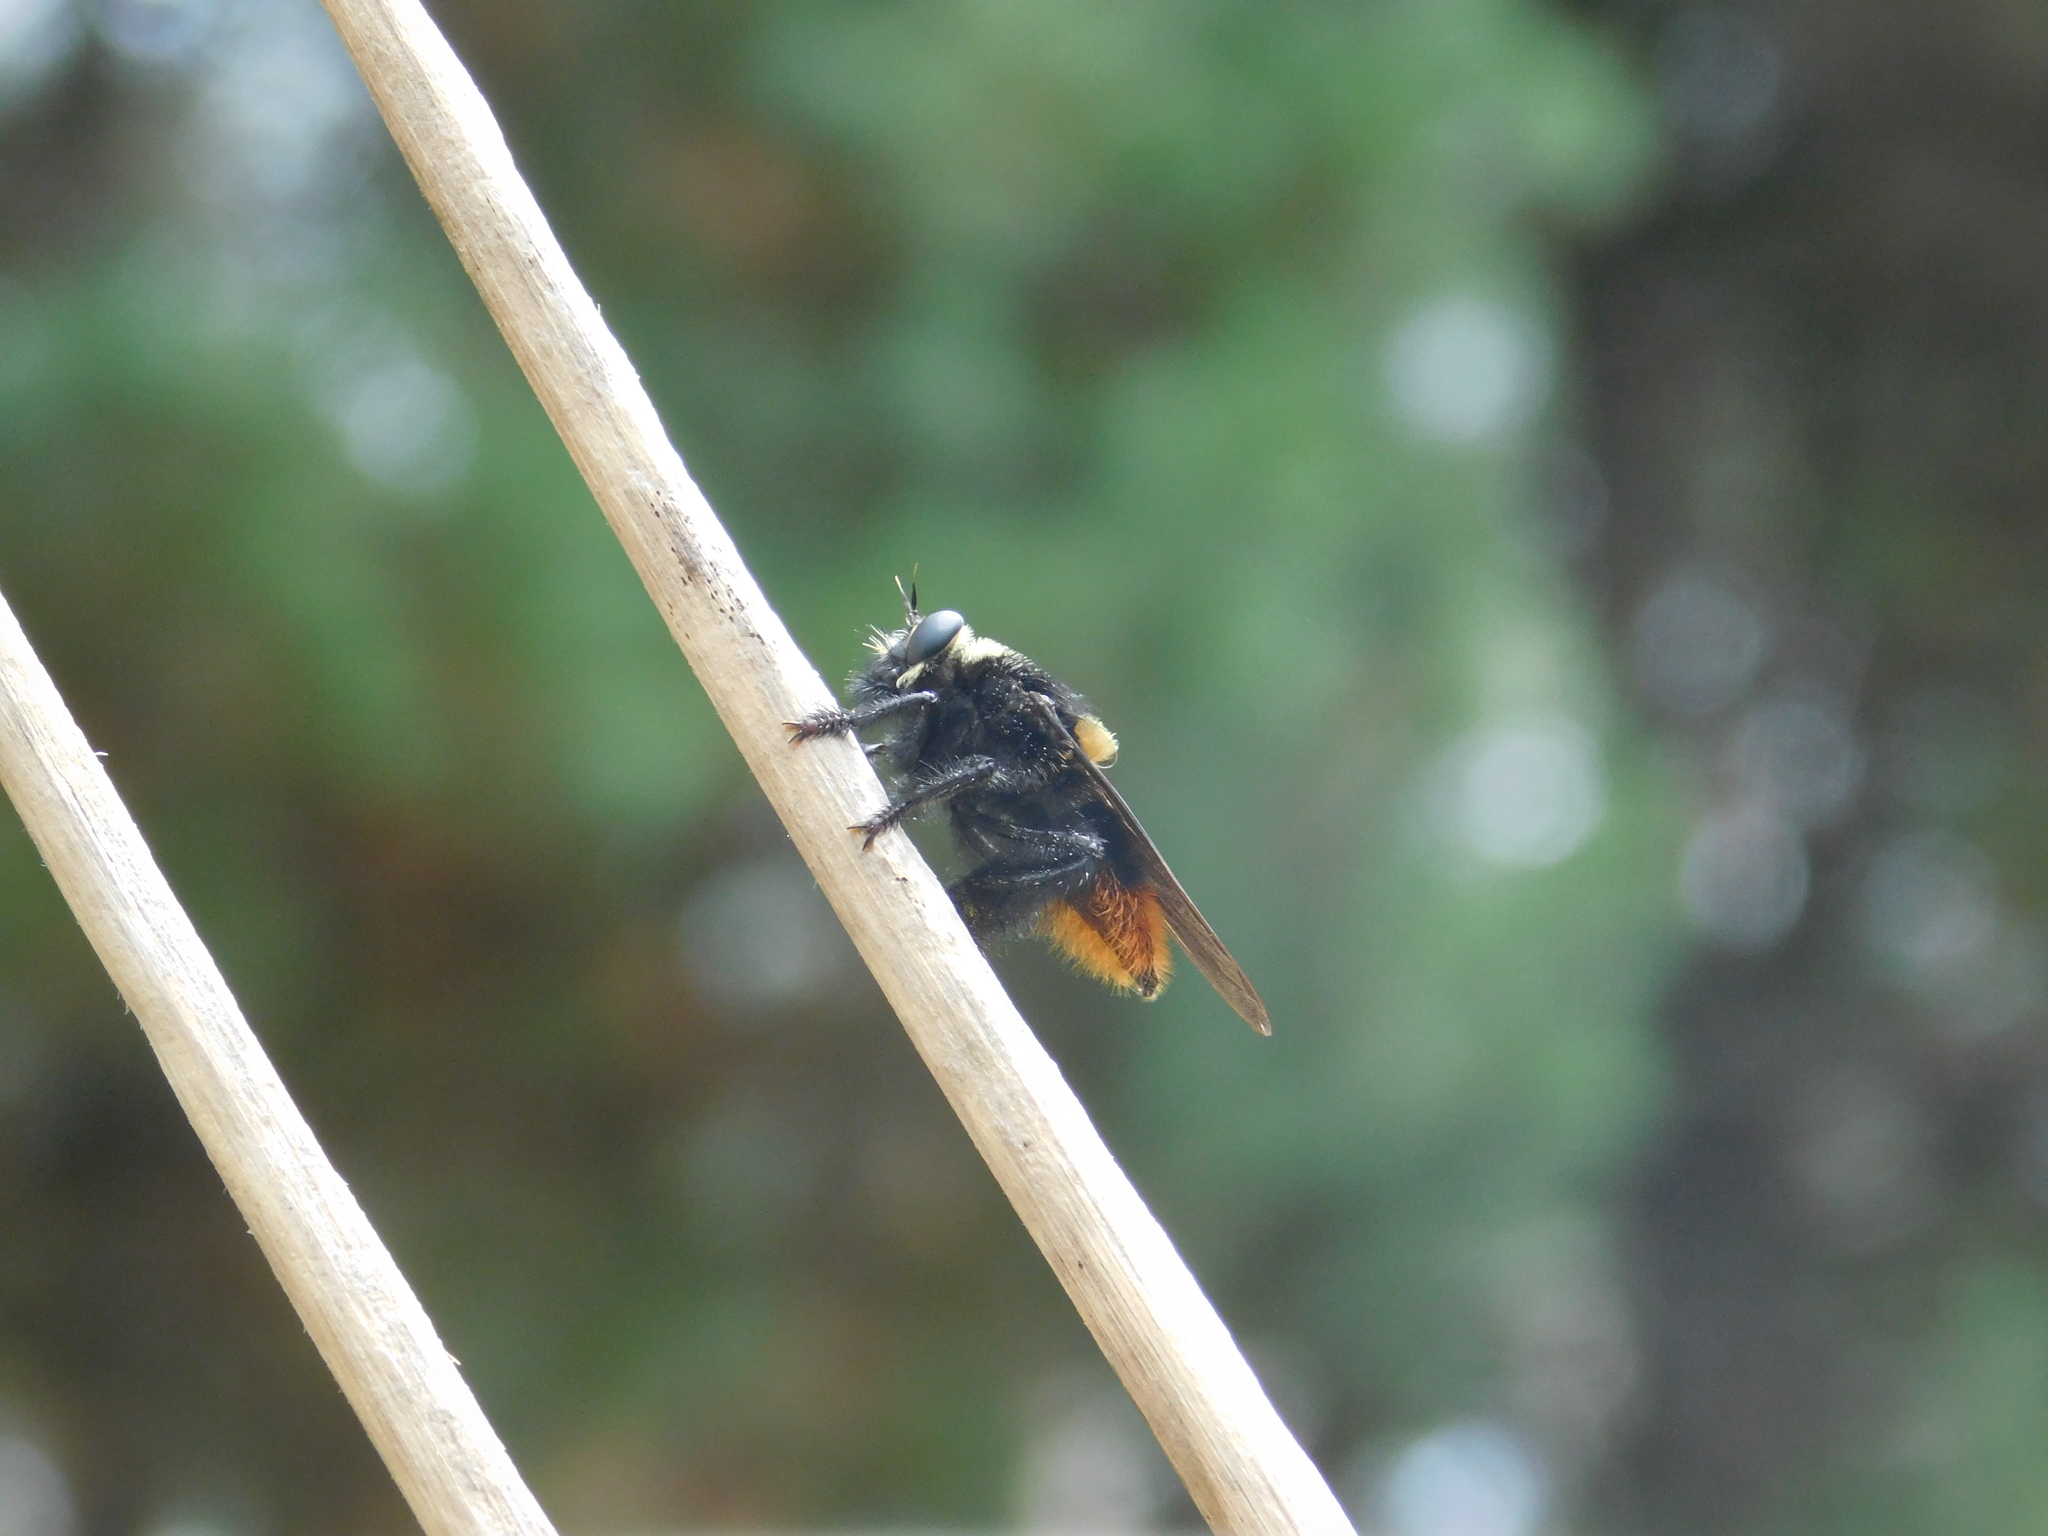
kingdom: Animalia
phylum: Arthropoda
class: Insecta
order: Diptera
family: Asilidae
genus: Mallophora
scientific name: Mallophora ruficauda
